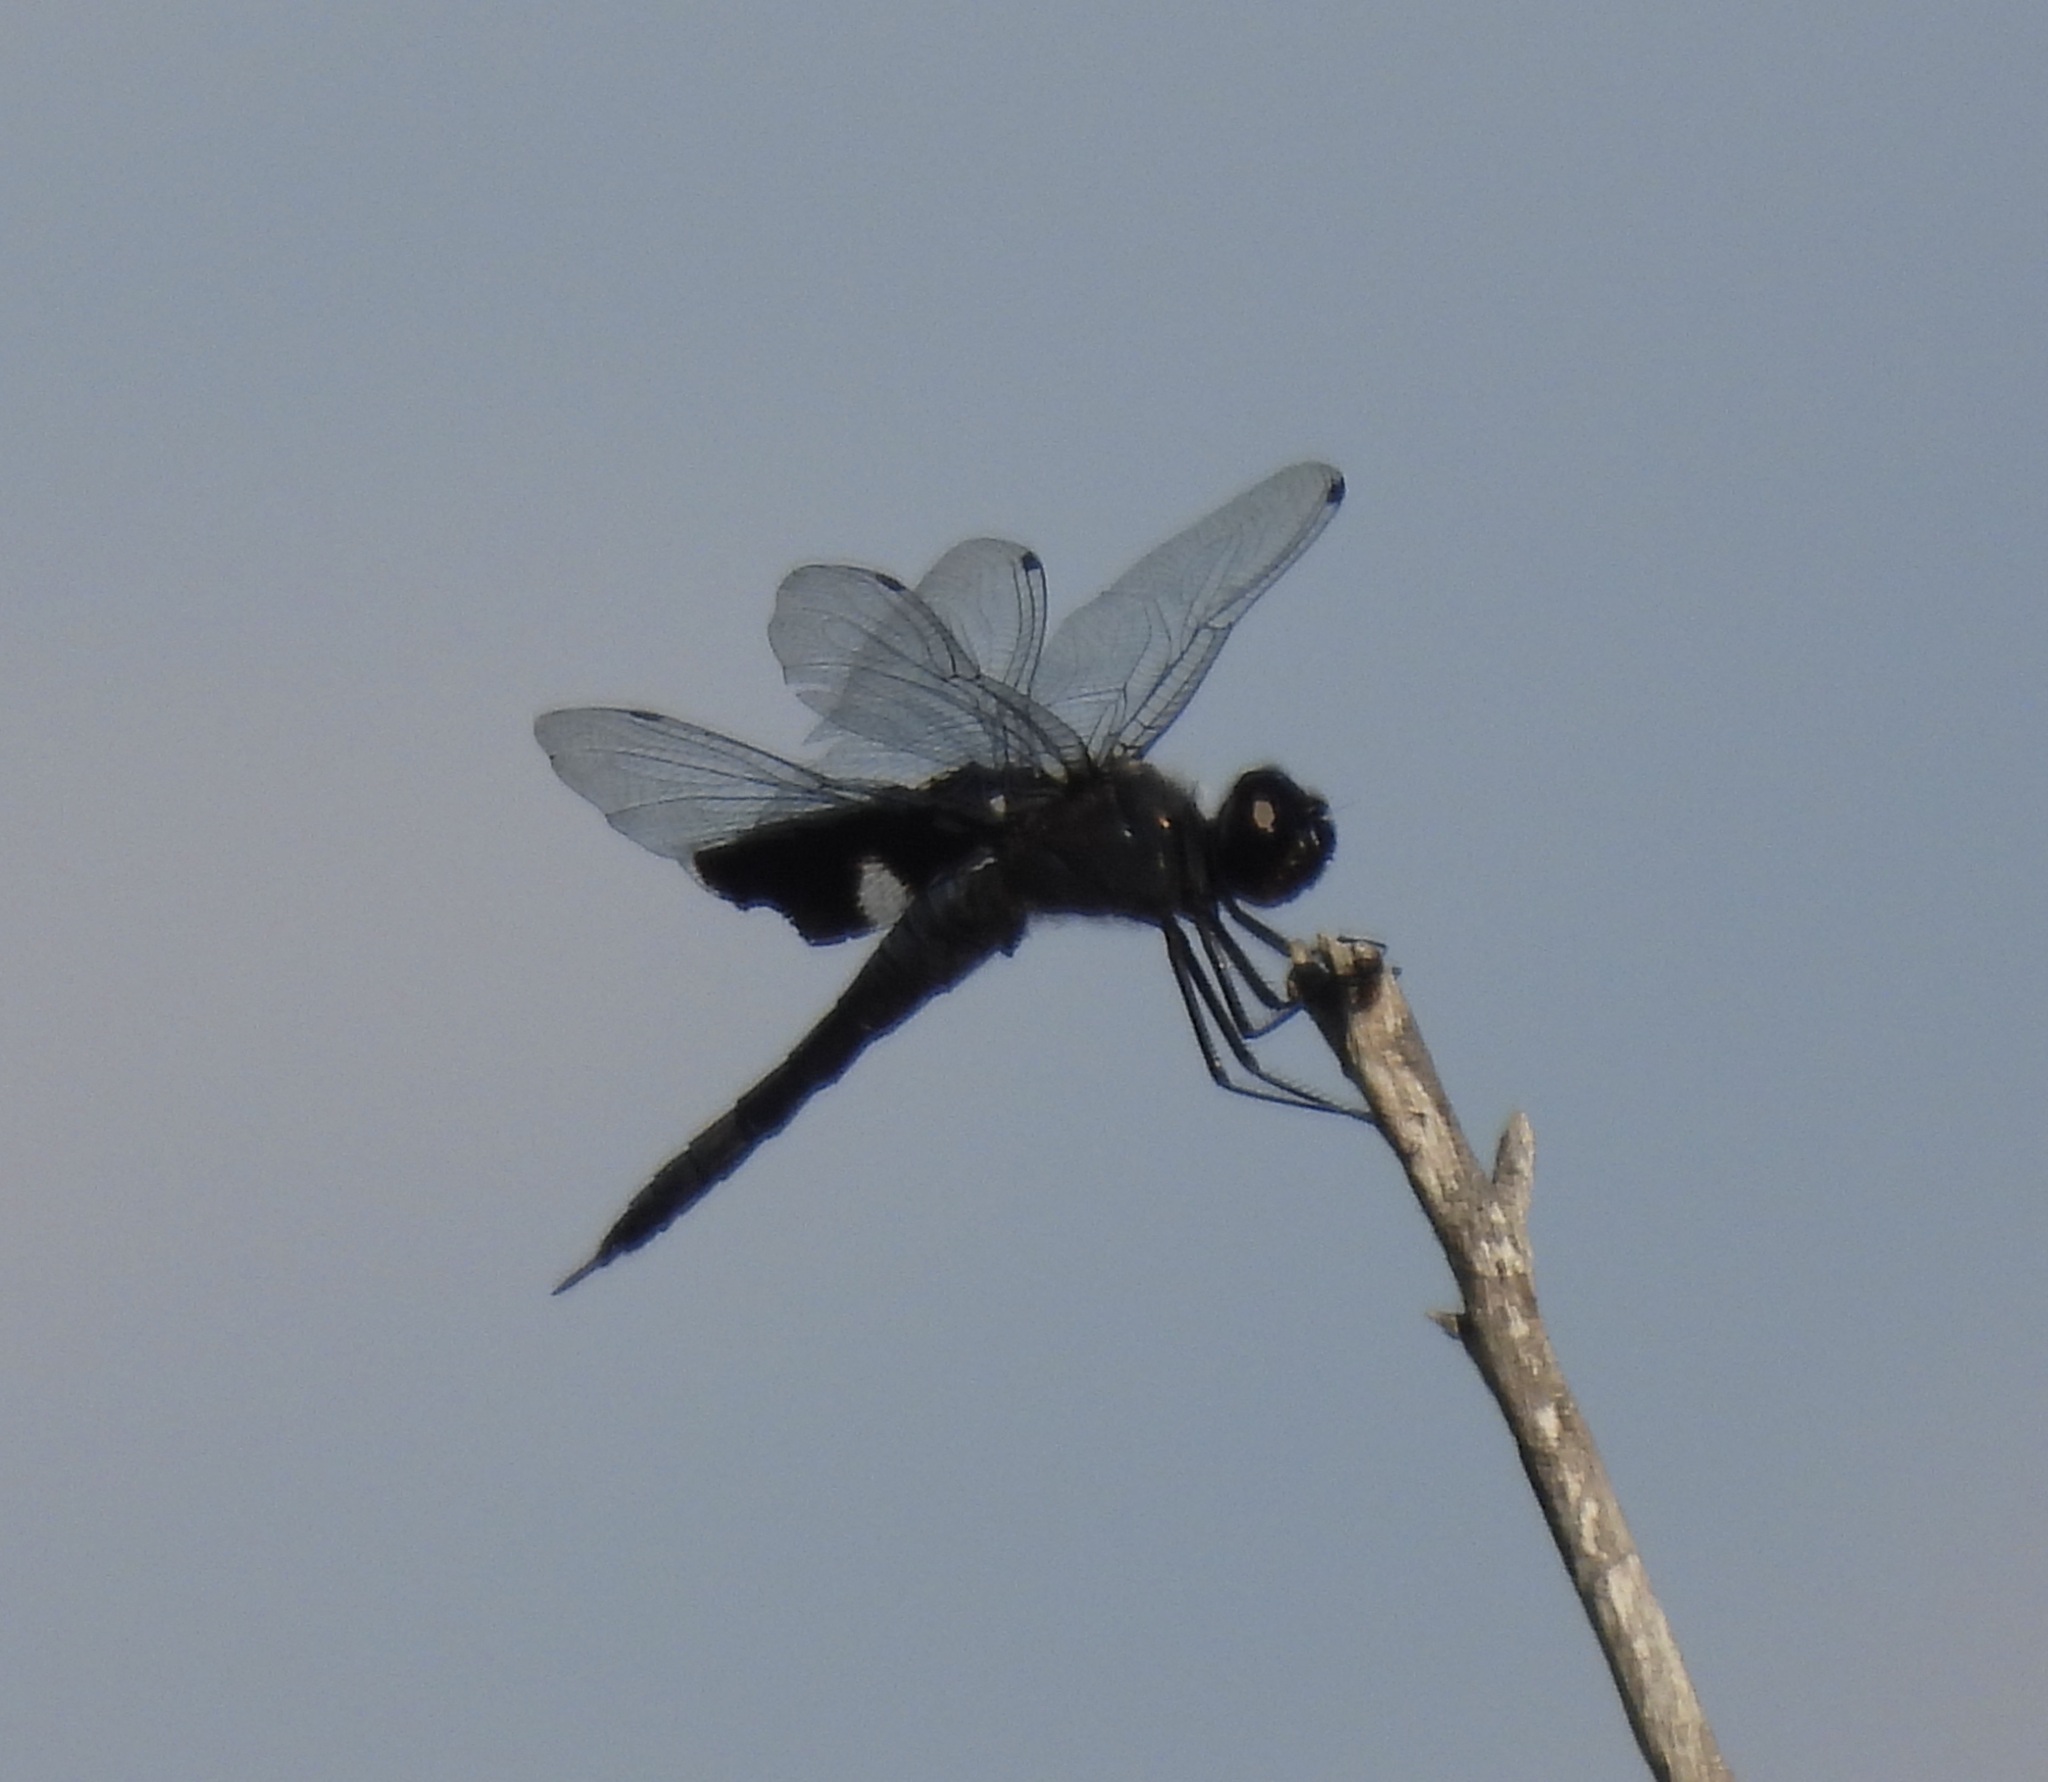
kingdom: Animalia
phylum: Arthropoda
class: Insecta
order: Odonata
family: Libellulidae
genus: Tramea
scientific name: Tramea lacerata
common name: Black saddlebags
